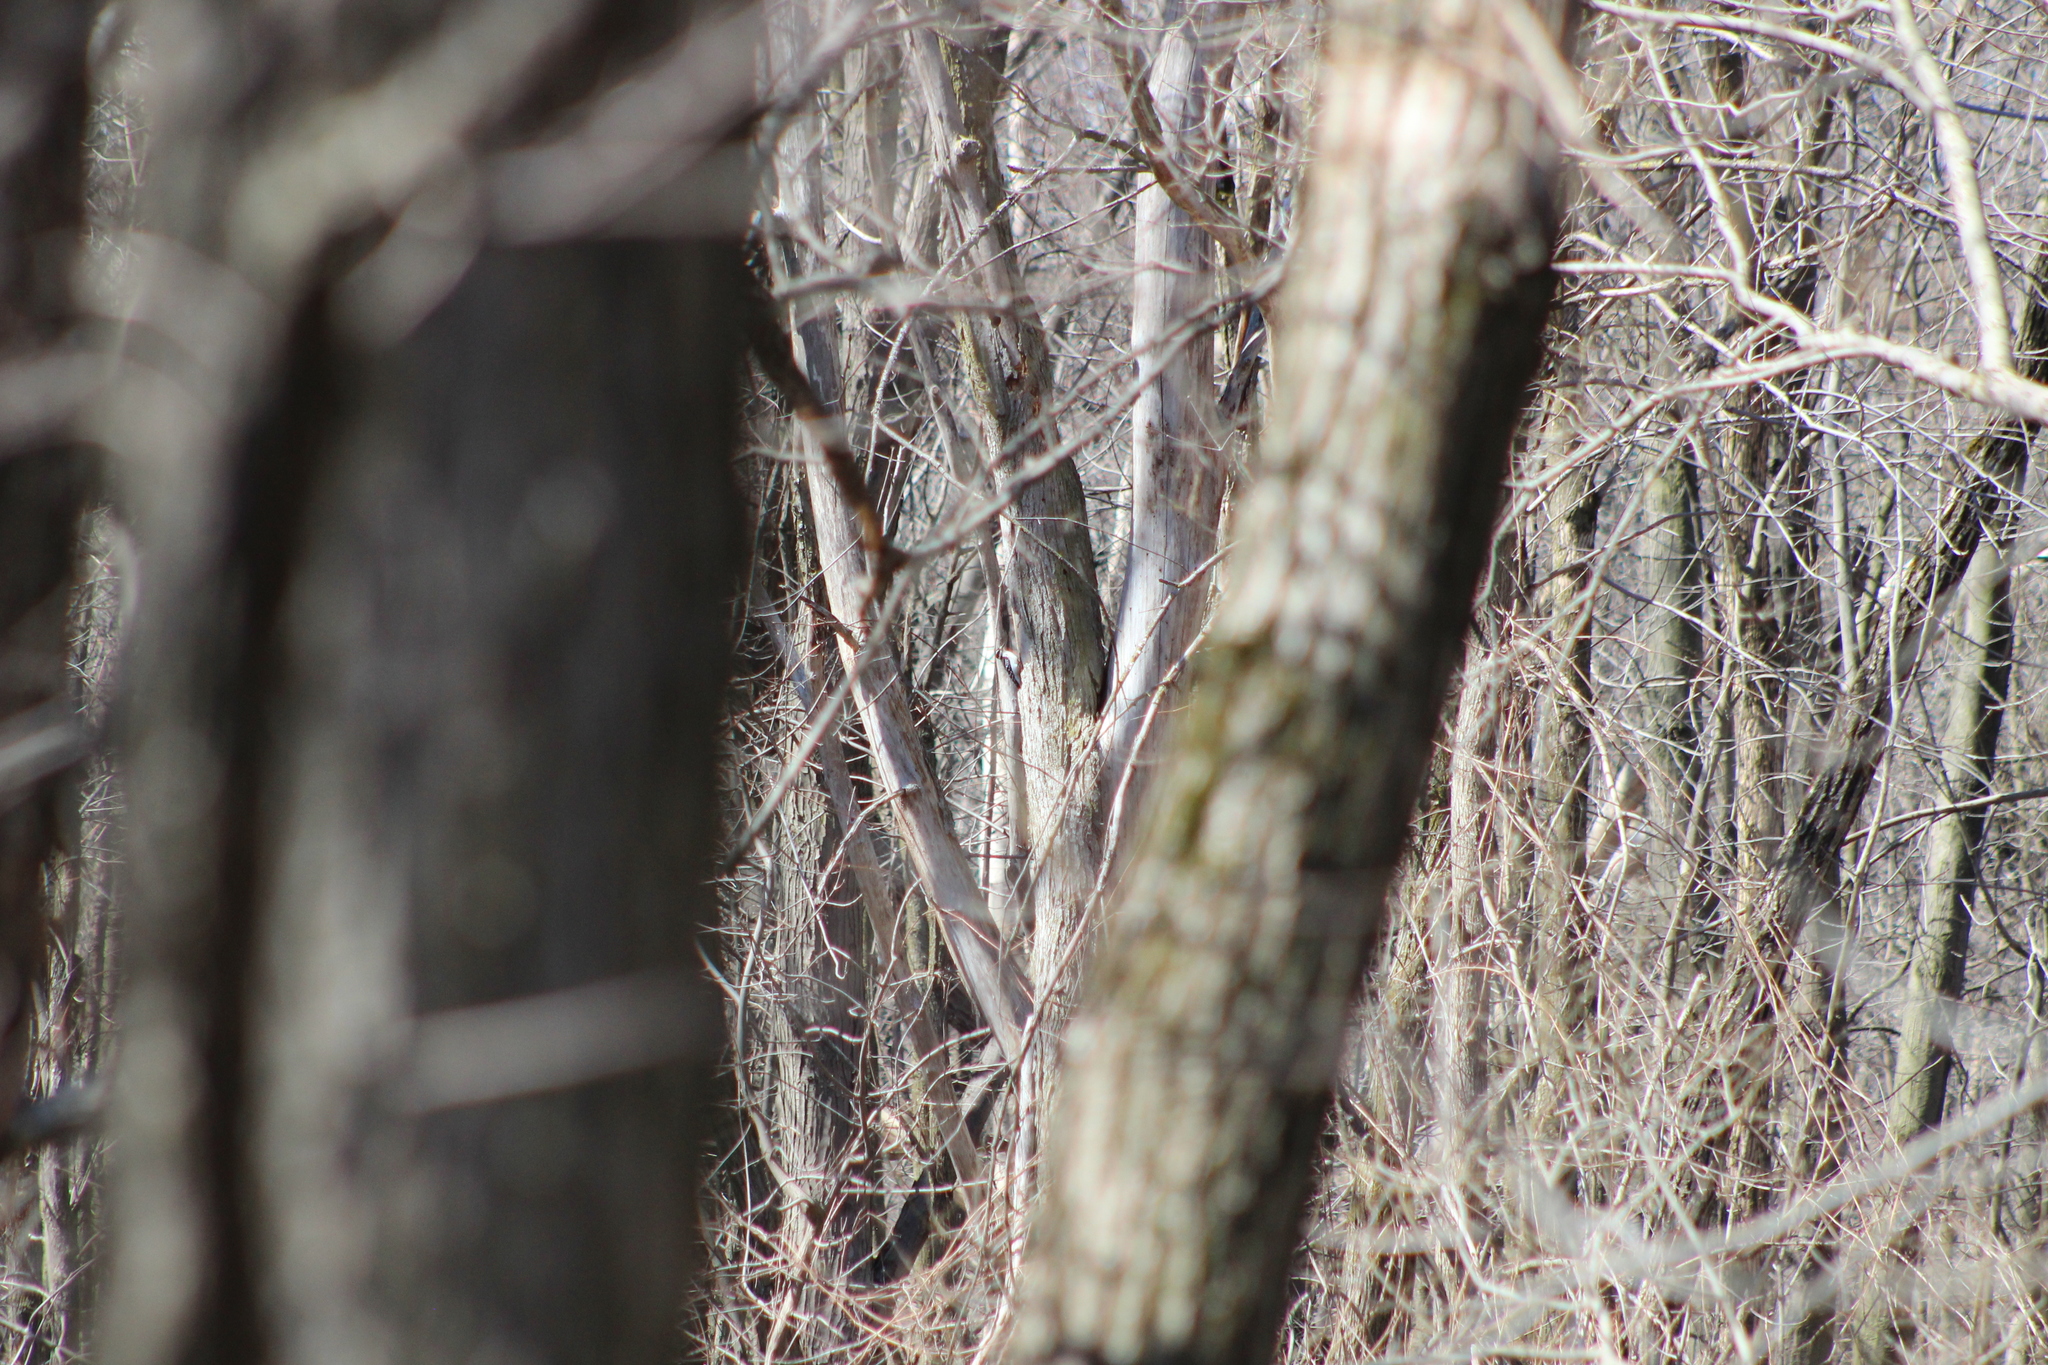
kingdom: Animalia
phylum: Chordata
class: Aves
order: Piciformes
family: Picidae
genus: Dryobates
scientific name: Dryobates pubescens
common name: Downy woodpecker
